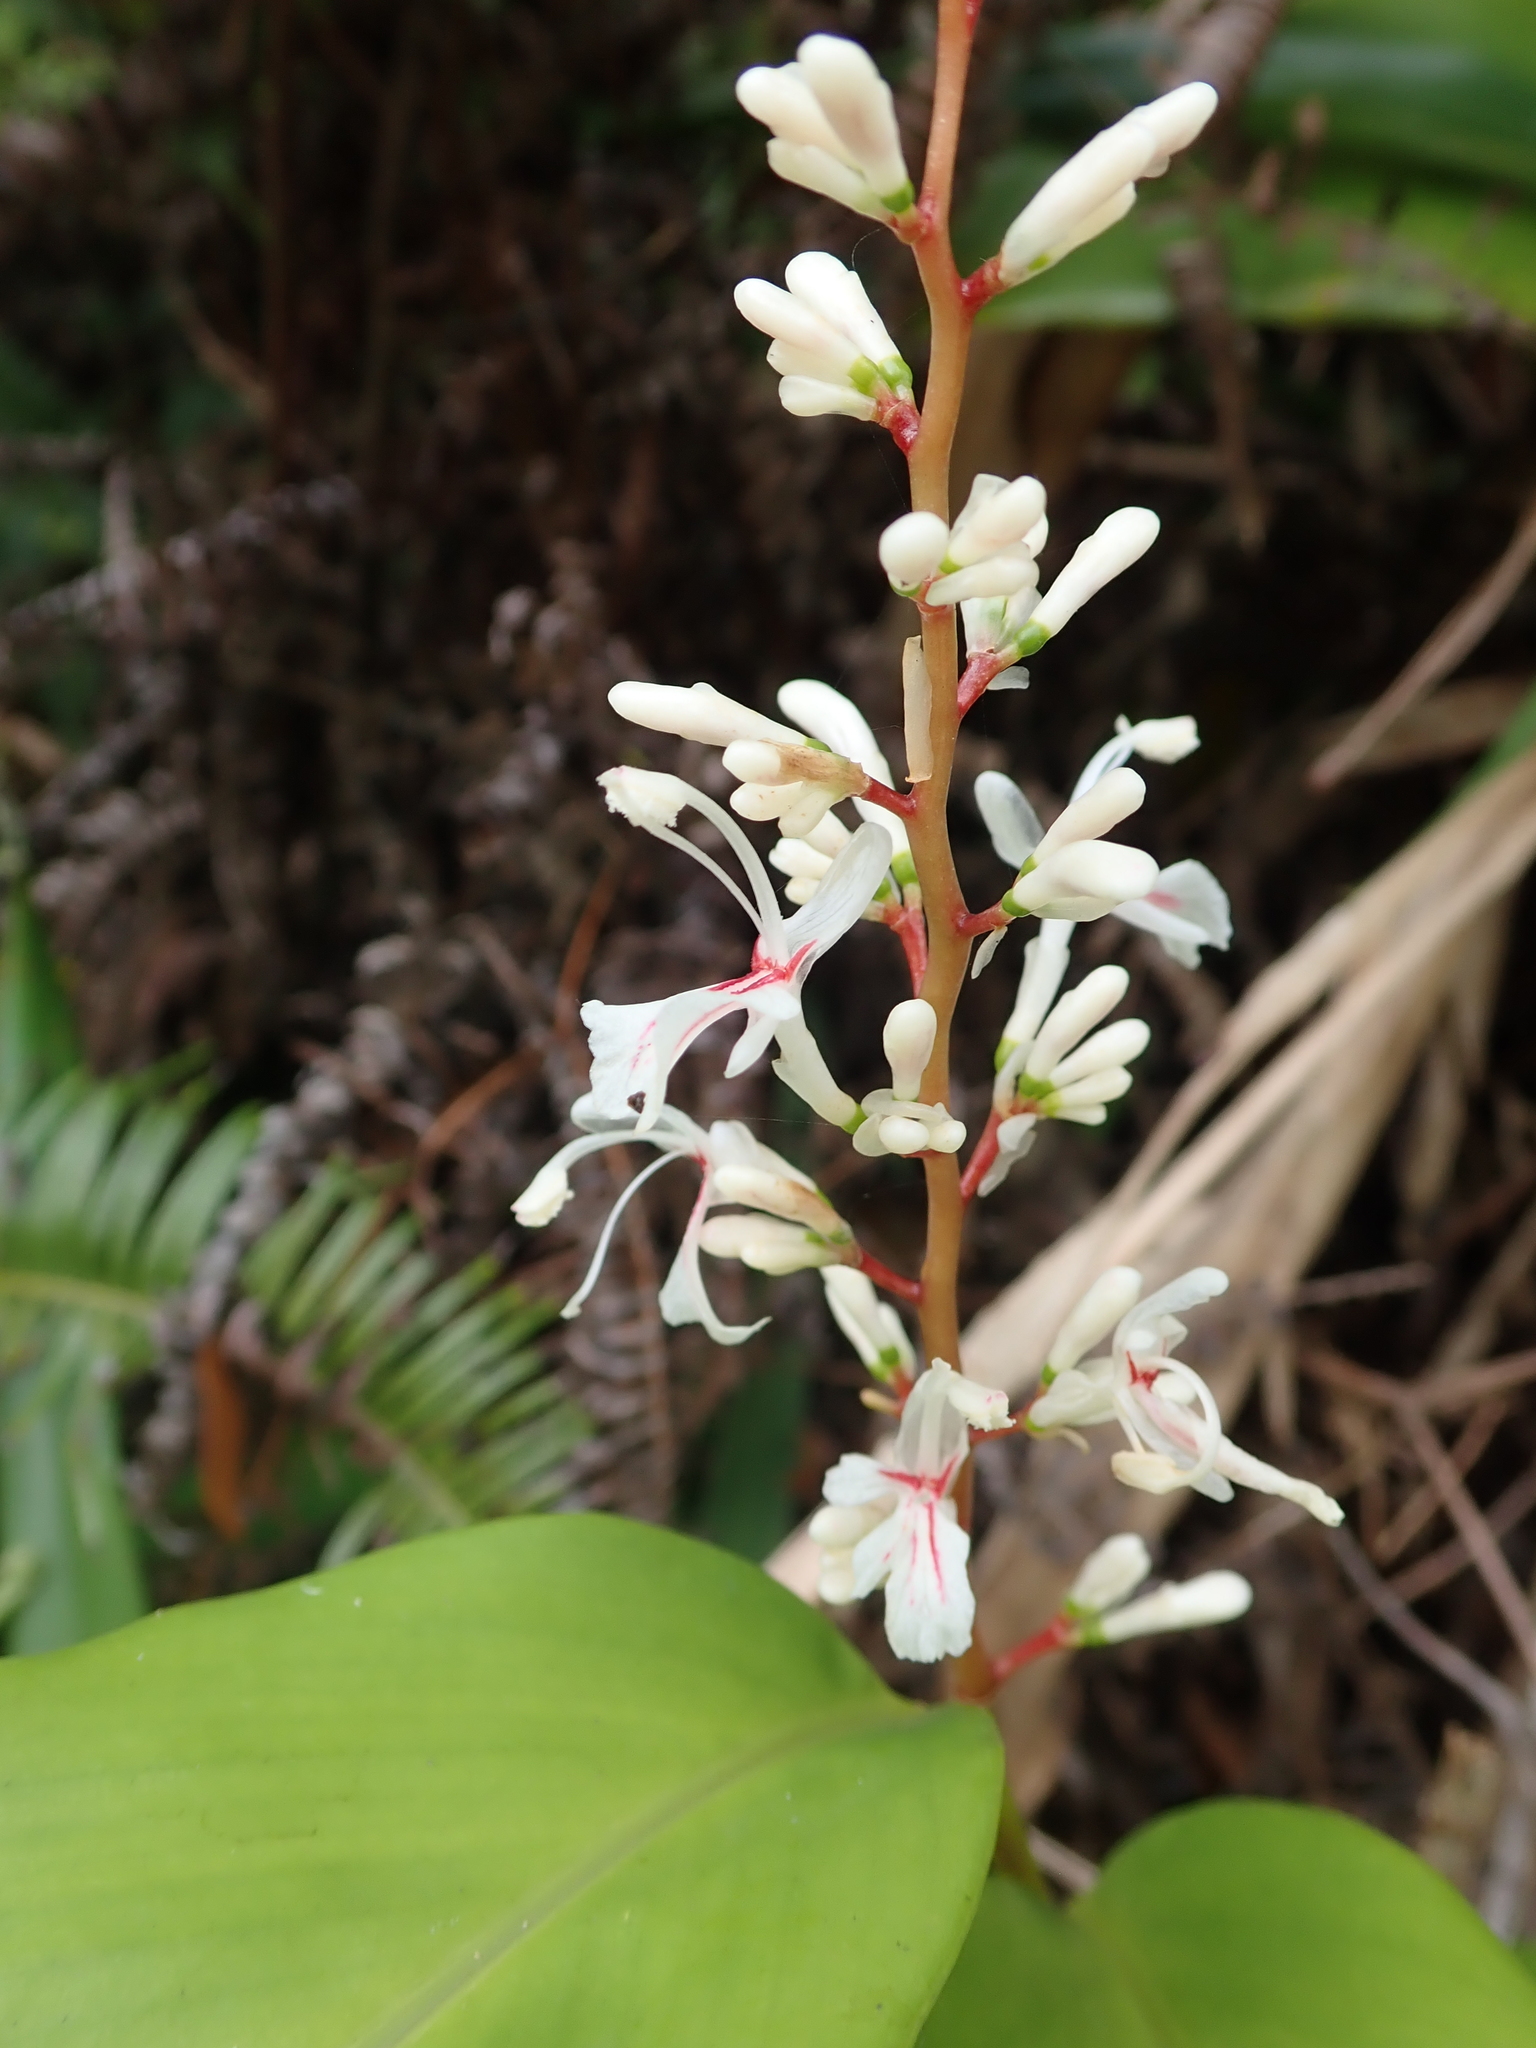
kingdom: Plantae
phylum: Tracheophyta
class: Liliopsida
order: Zingiberales
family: Zingiberaceae
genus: Alpinia
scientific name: Alpinia intermedia
